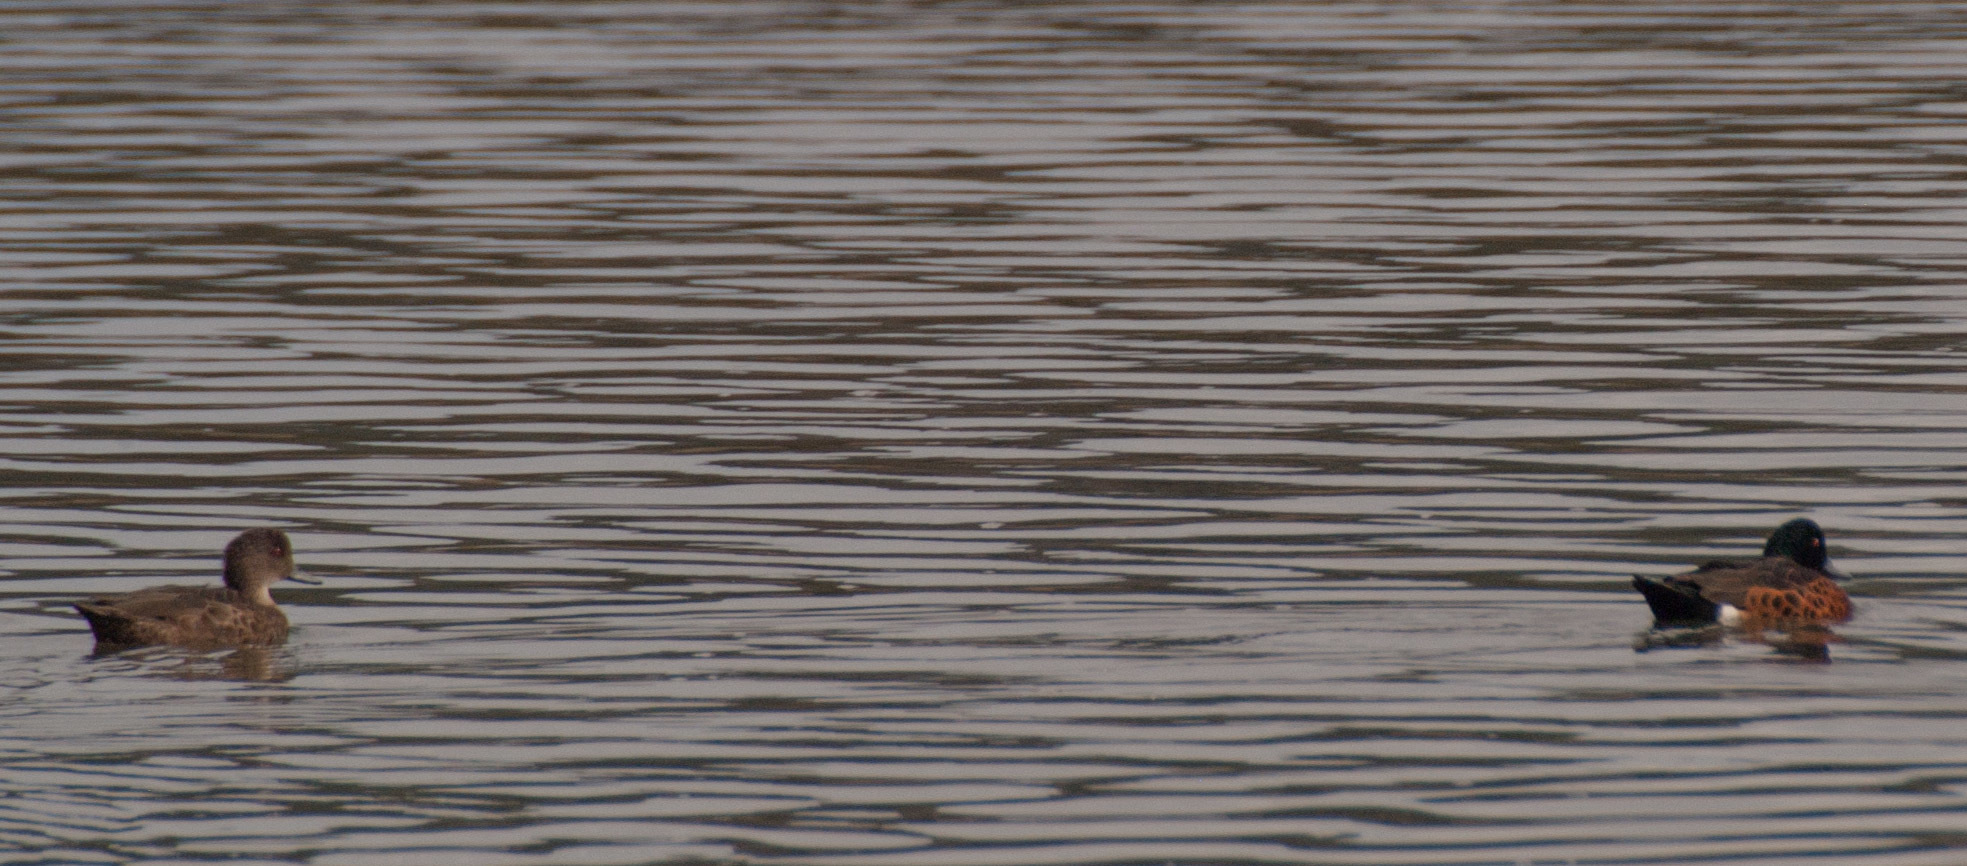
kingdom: Animalia
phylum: Chordata
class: Aves
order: Anseriformes
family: Anatidae
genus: Tadorna
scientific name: Tadorna tadornoides
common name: Australian shelduck
